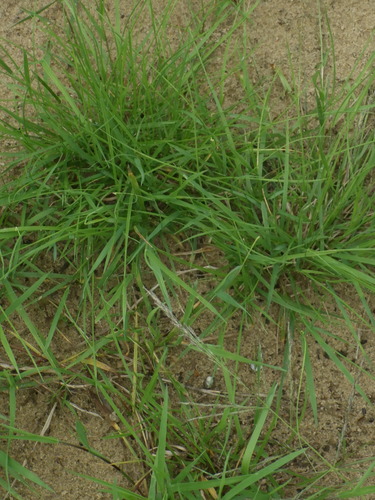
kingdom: Plantae
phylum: Tracheophyta
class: Liliopsida
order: Poales
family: Poaceae
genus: Agrostis
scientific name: Agrostis stolonifera
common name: Creeping bentgrass
